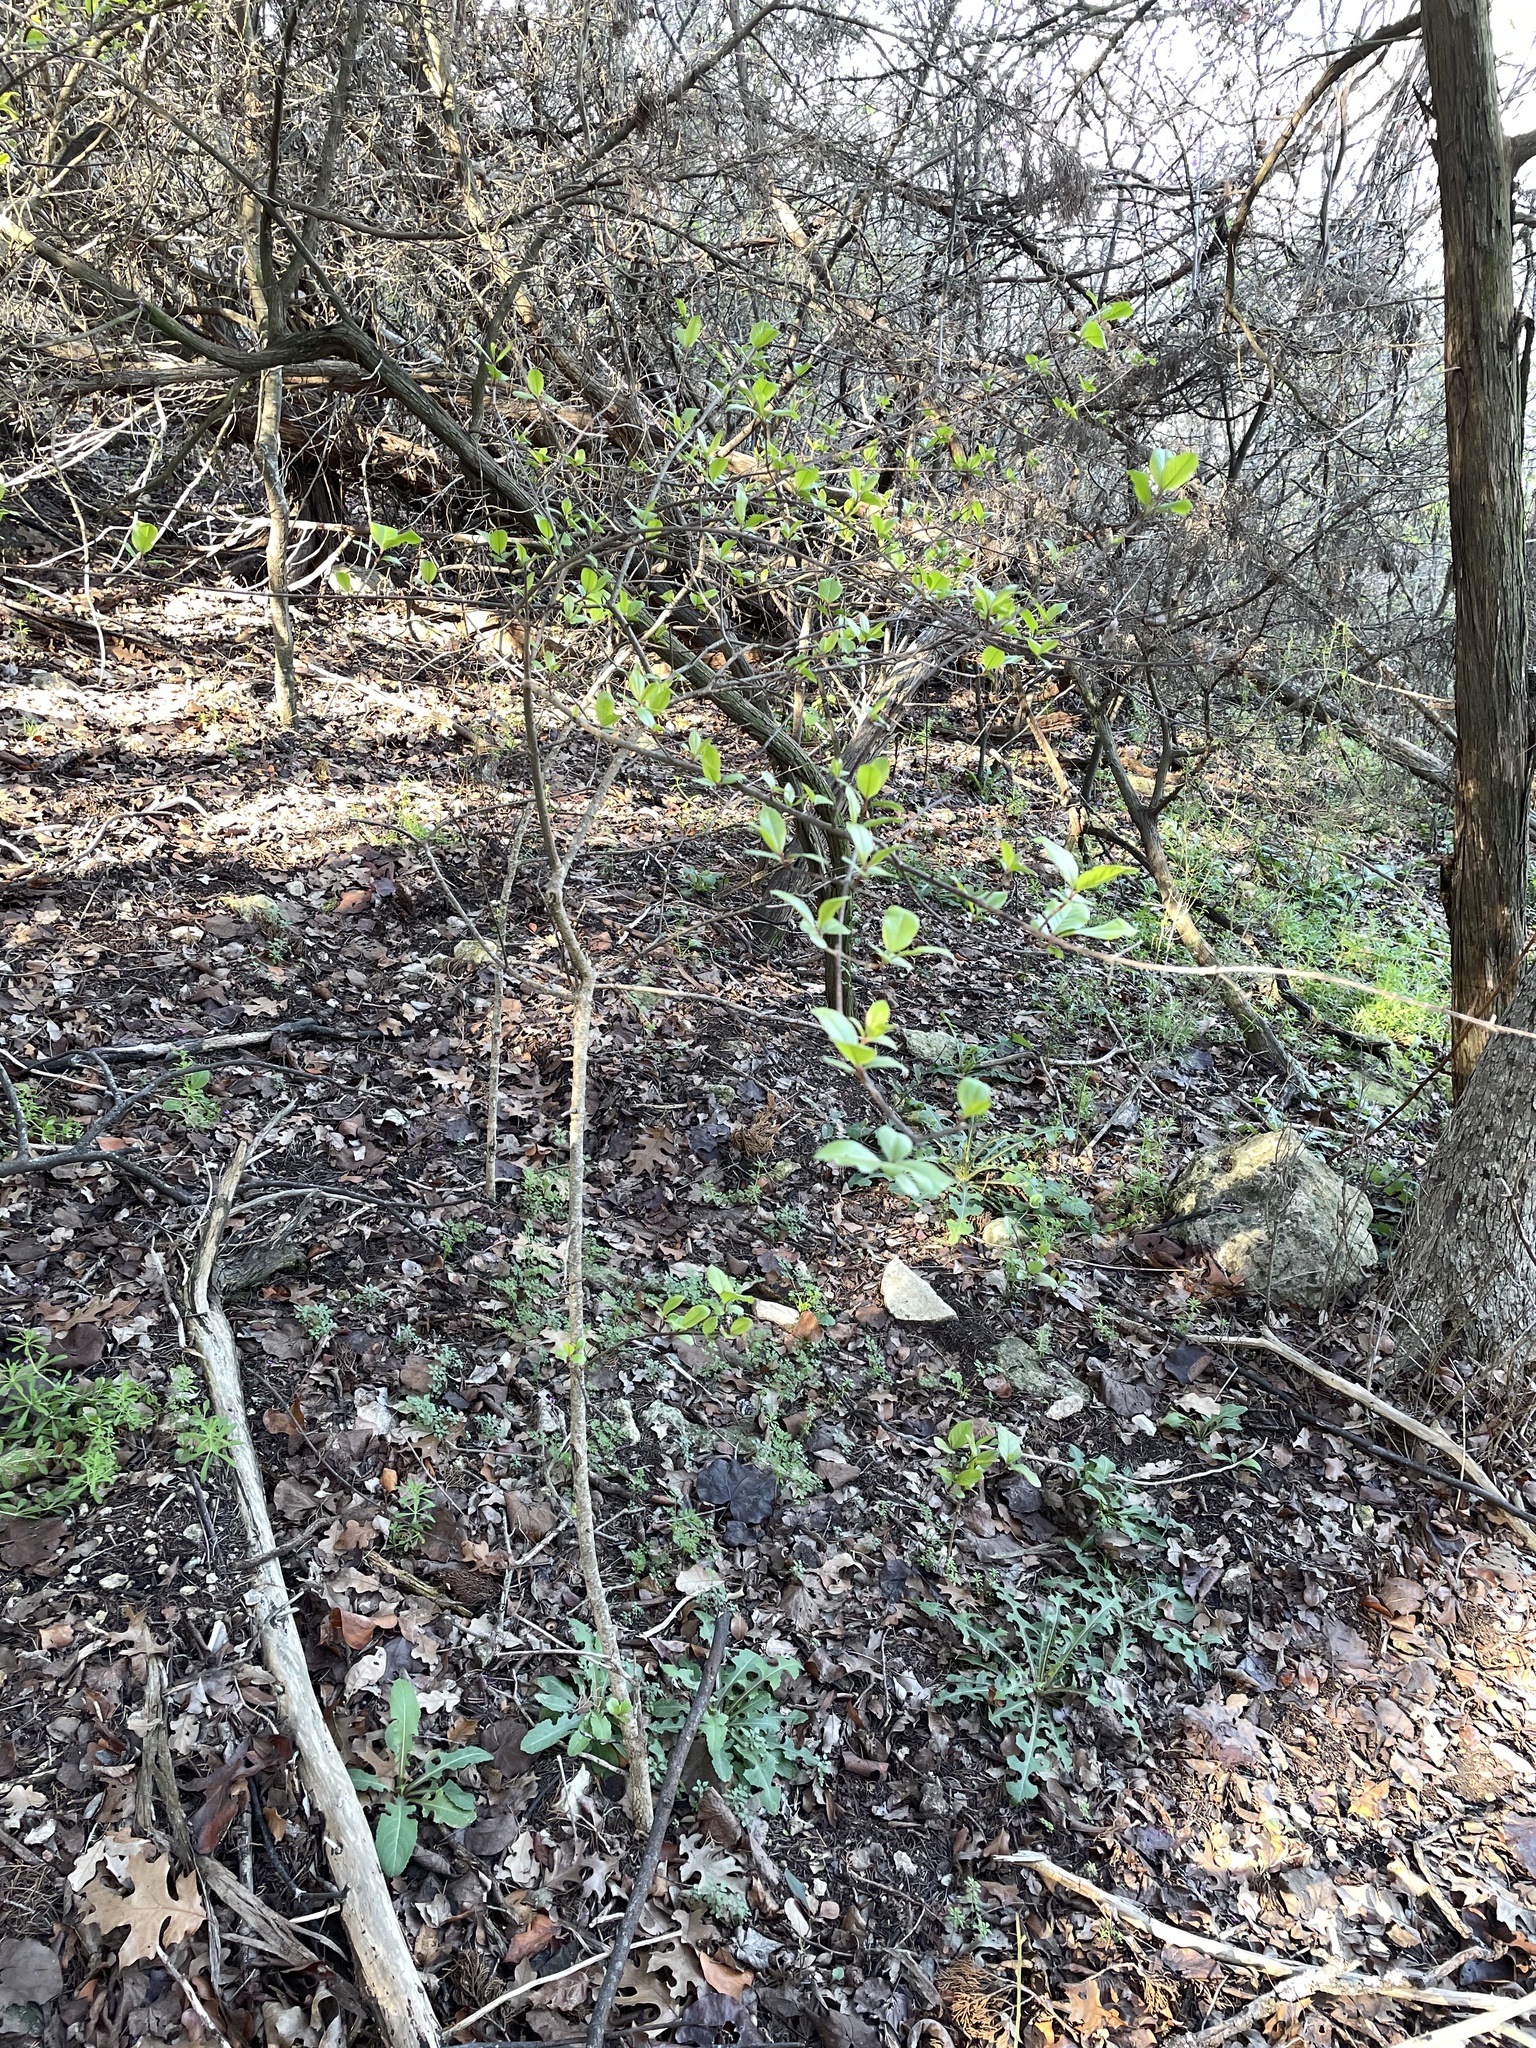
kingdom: Plantae
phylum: Tracheophyta
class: Magnoliopsida
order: Dipsacales
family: Viburnaceae
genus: Viburnum
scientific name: Viburnum rufidulum
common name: Blue haw
